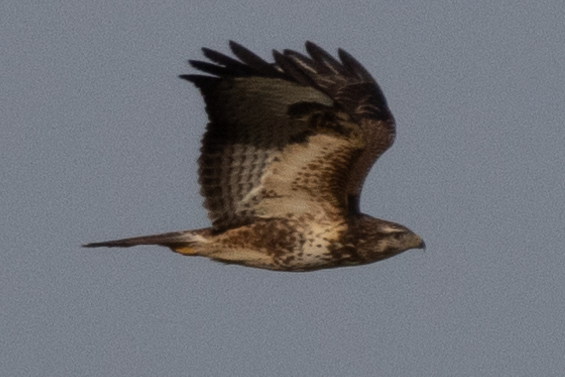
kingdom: Animalia
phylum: Chordata
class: Aves
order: Accipitriformes
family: Accipitridae
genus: Buteo
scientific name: Buteo buteo
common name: Common buzzard
